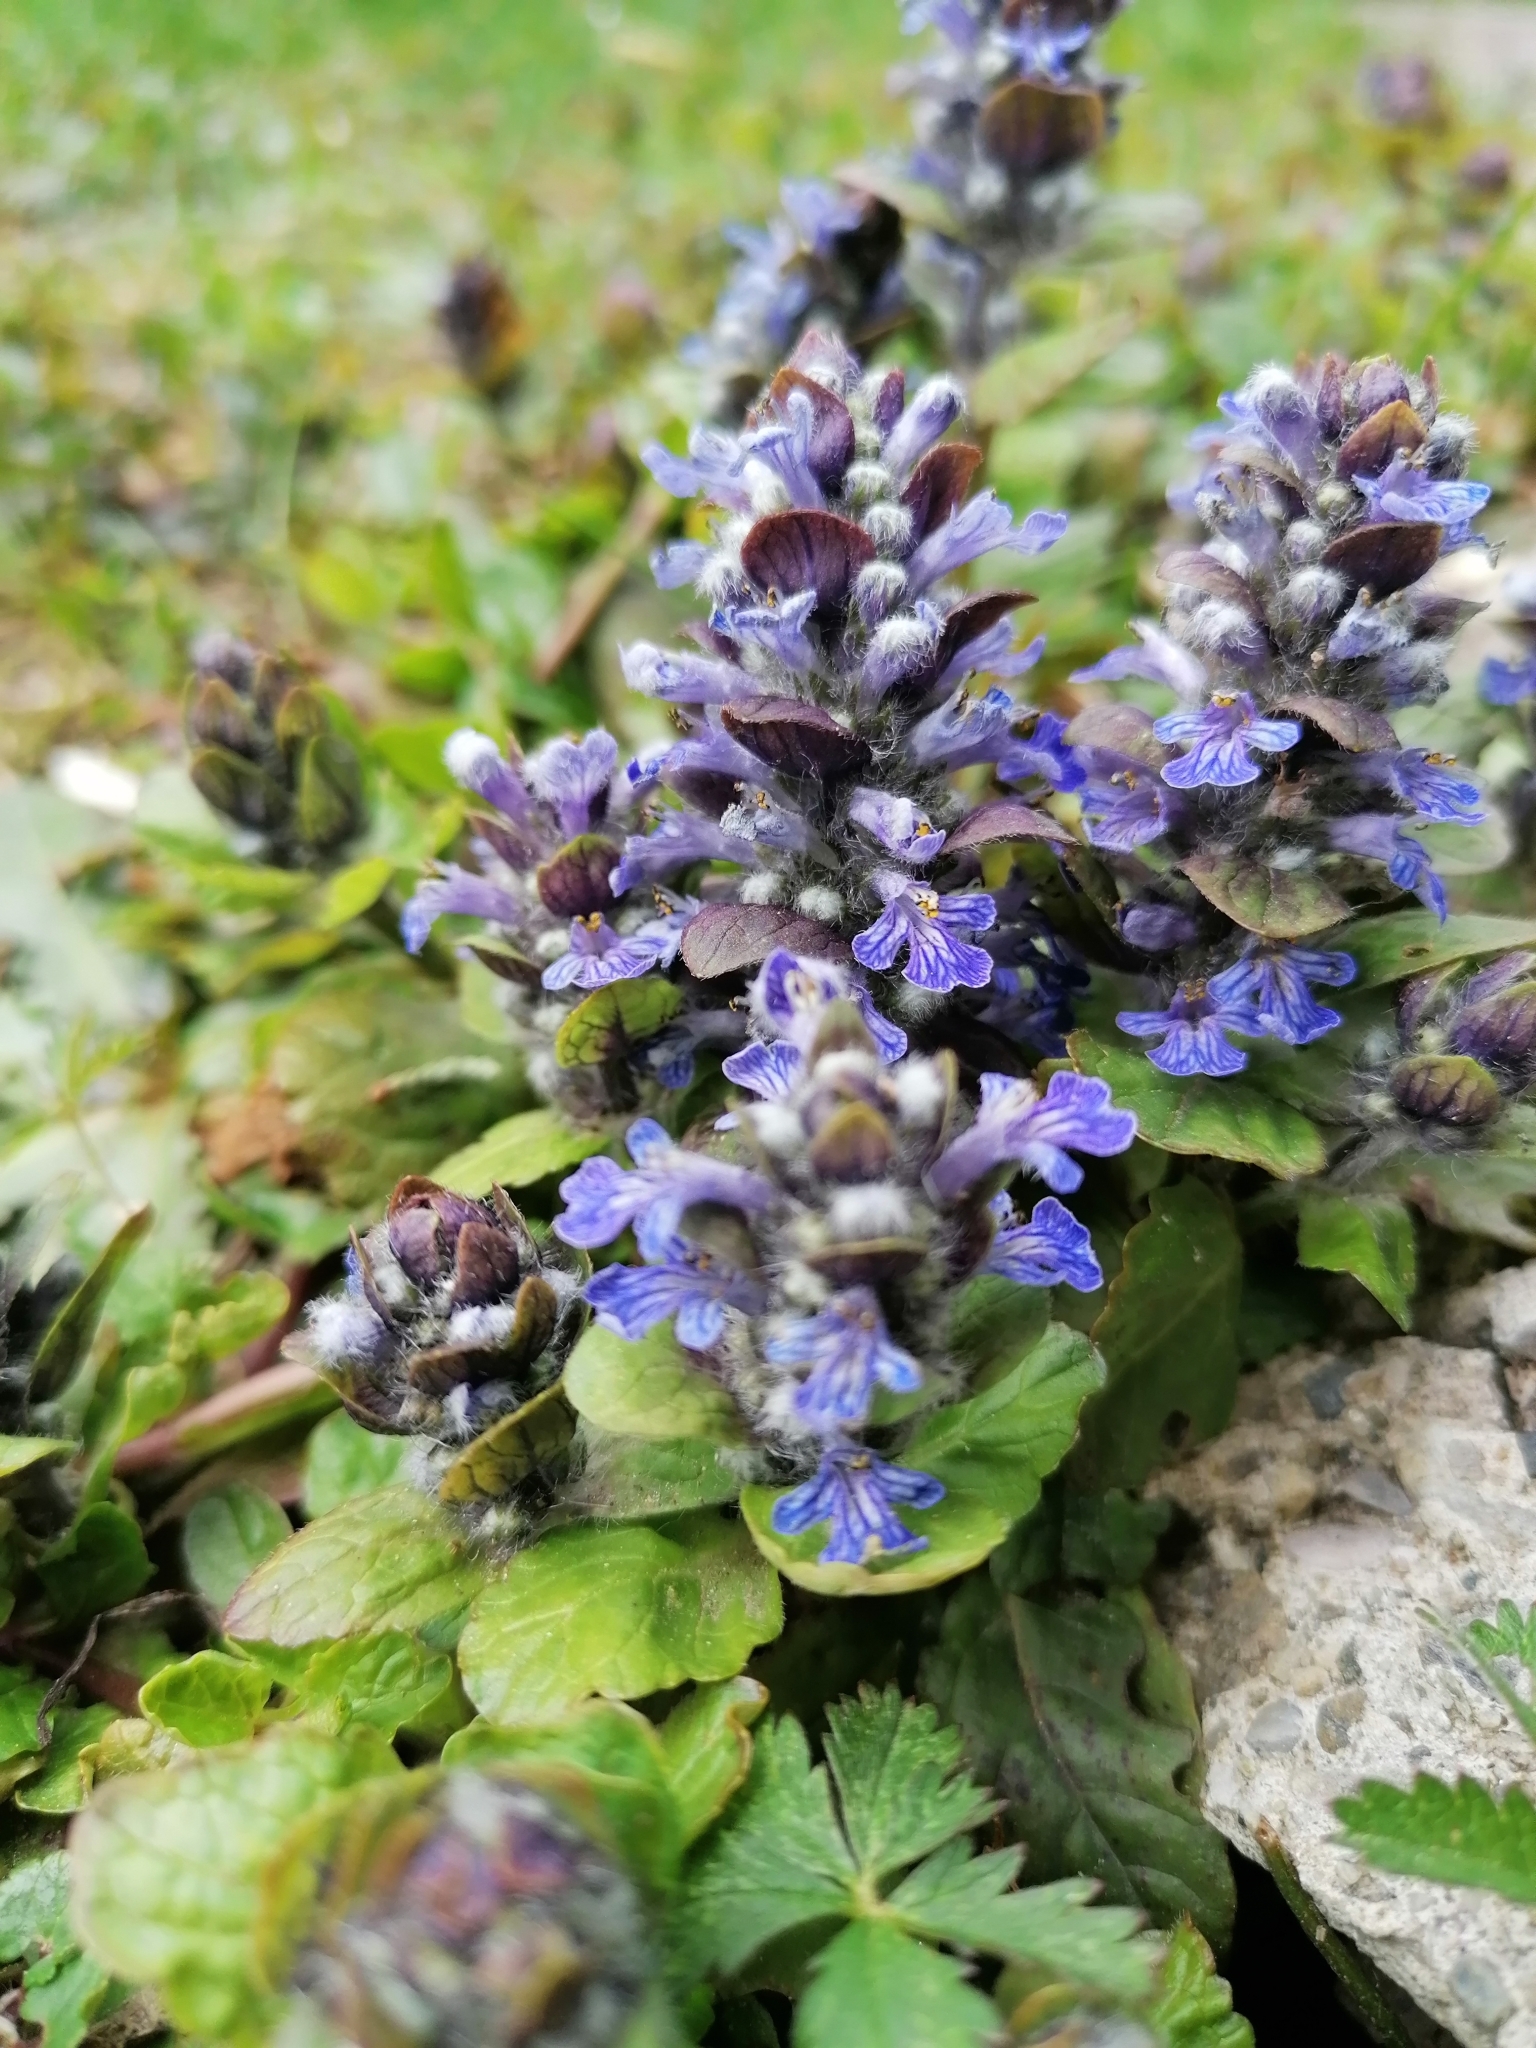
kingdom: Plantae
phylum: Tracheophyta
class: Magnoliopsida
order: Lamiales
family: Lamiaceae
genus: Ajuga
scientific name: Ajuga reptans
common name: Bugle
